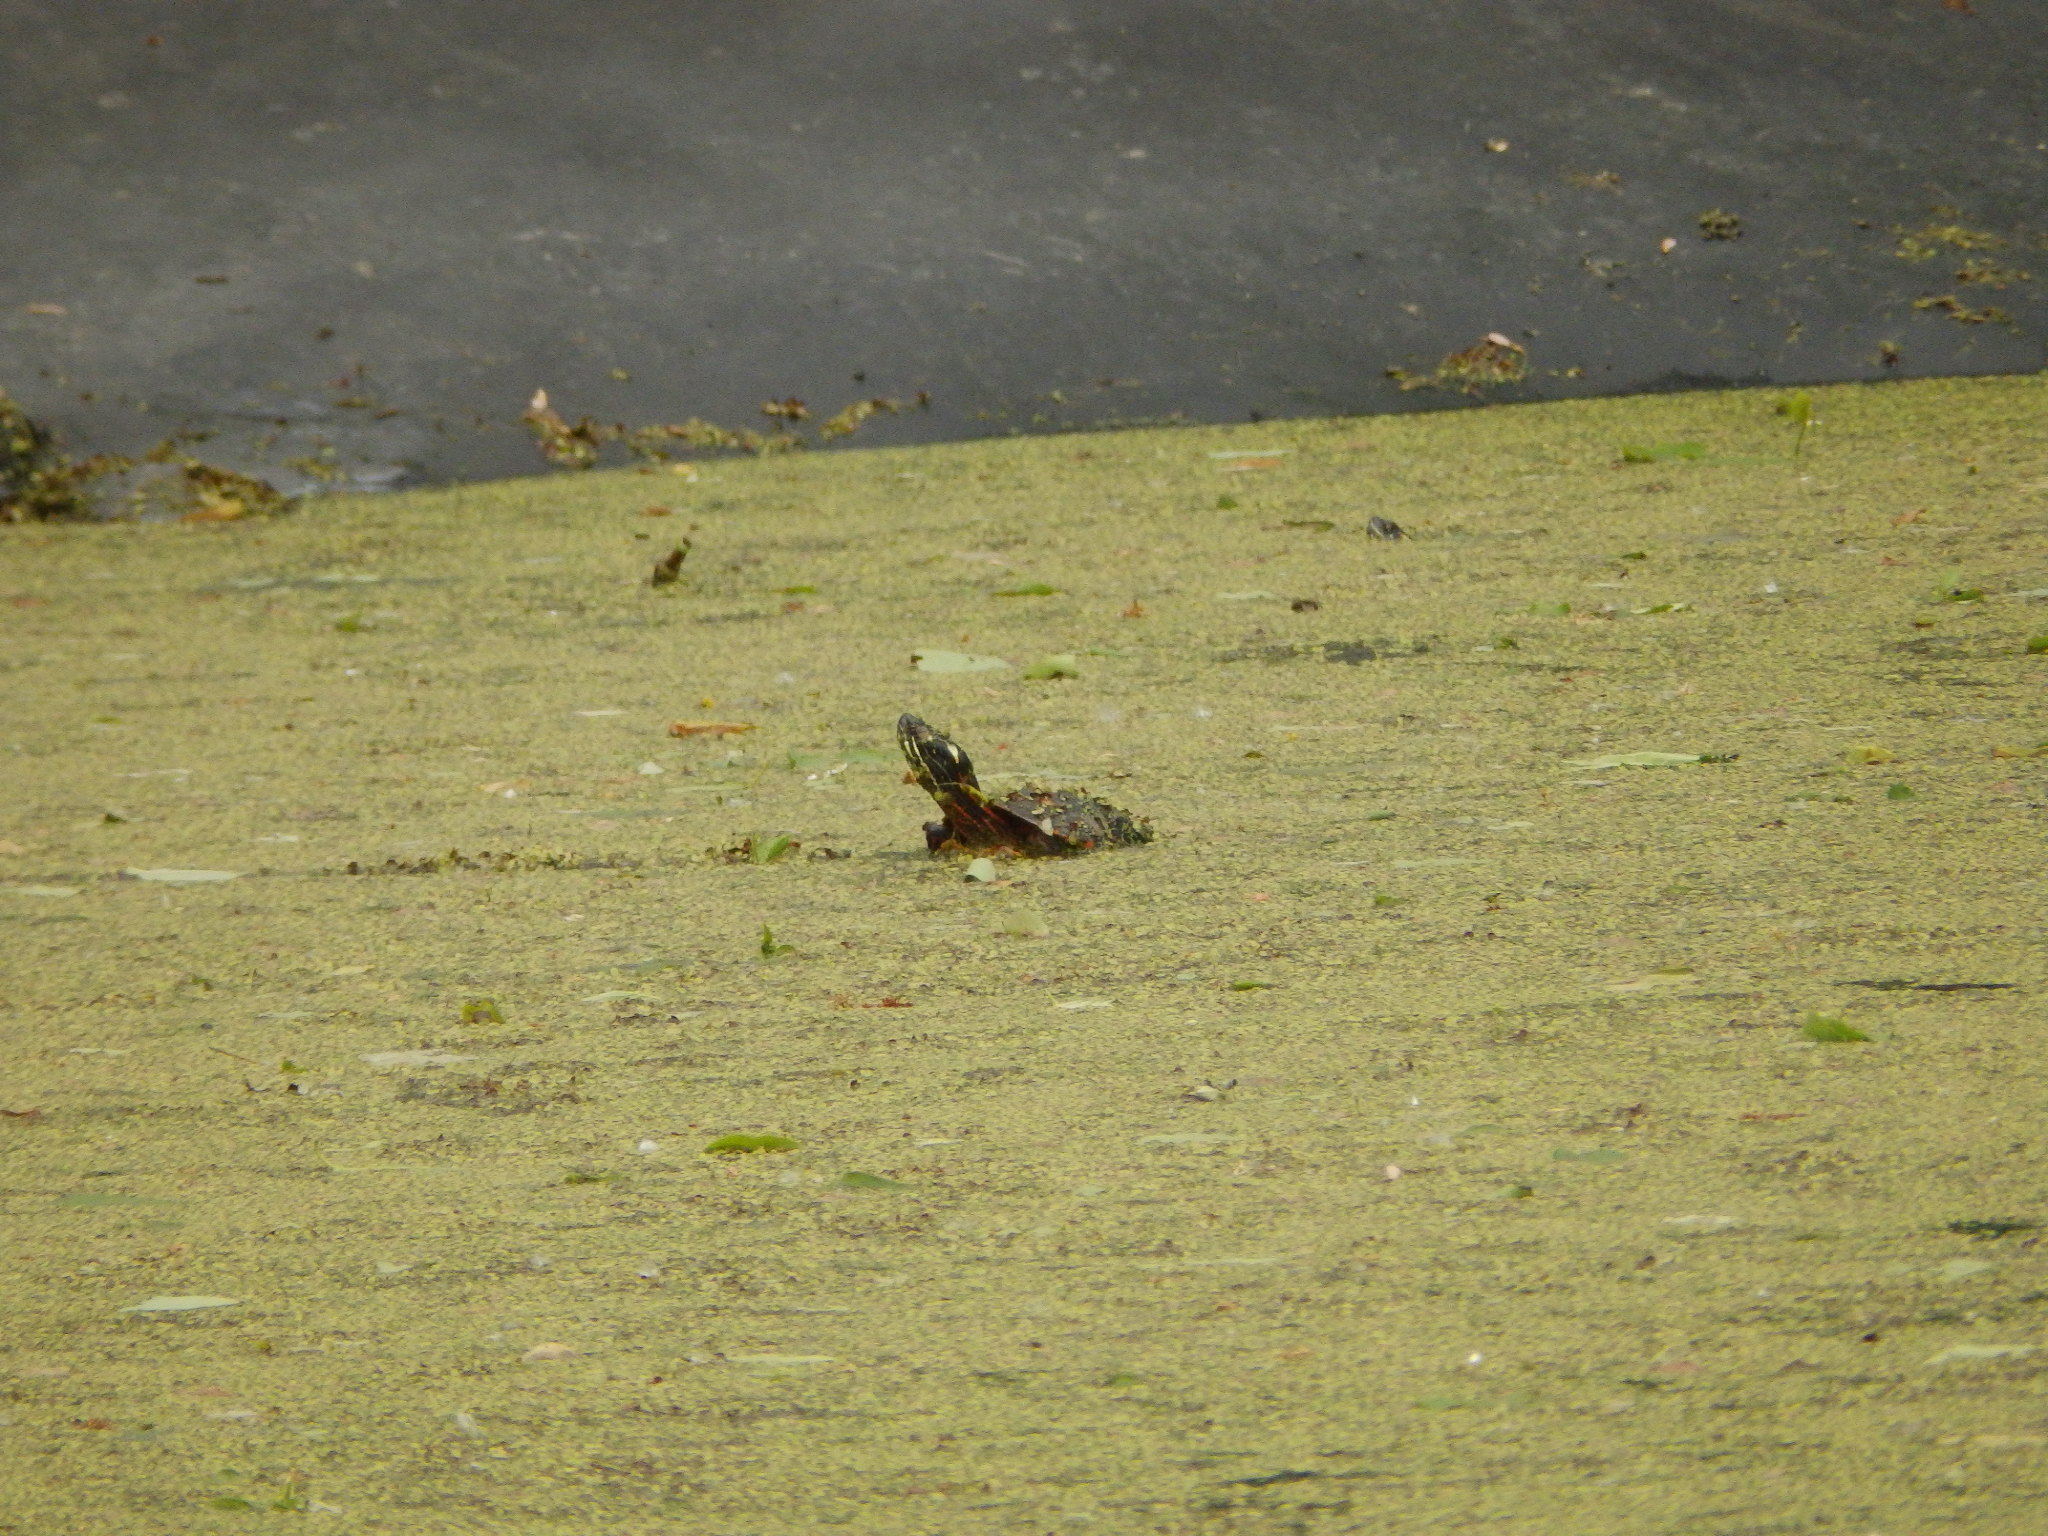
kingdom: Animalia
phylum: Chordata
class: Testudines
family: Emydidae
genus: Chrysemys
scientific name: Chrysemys picta
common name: Painted turtle
